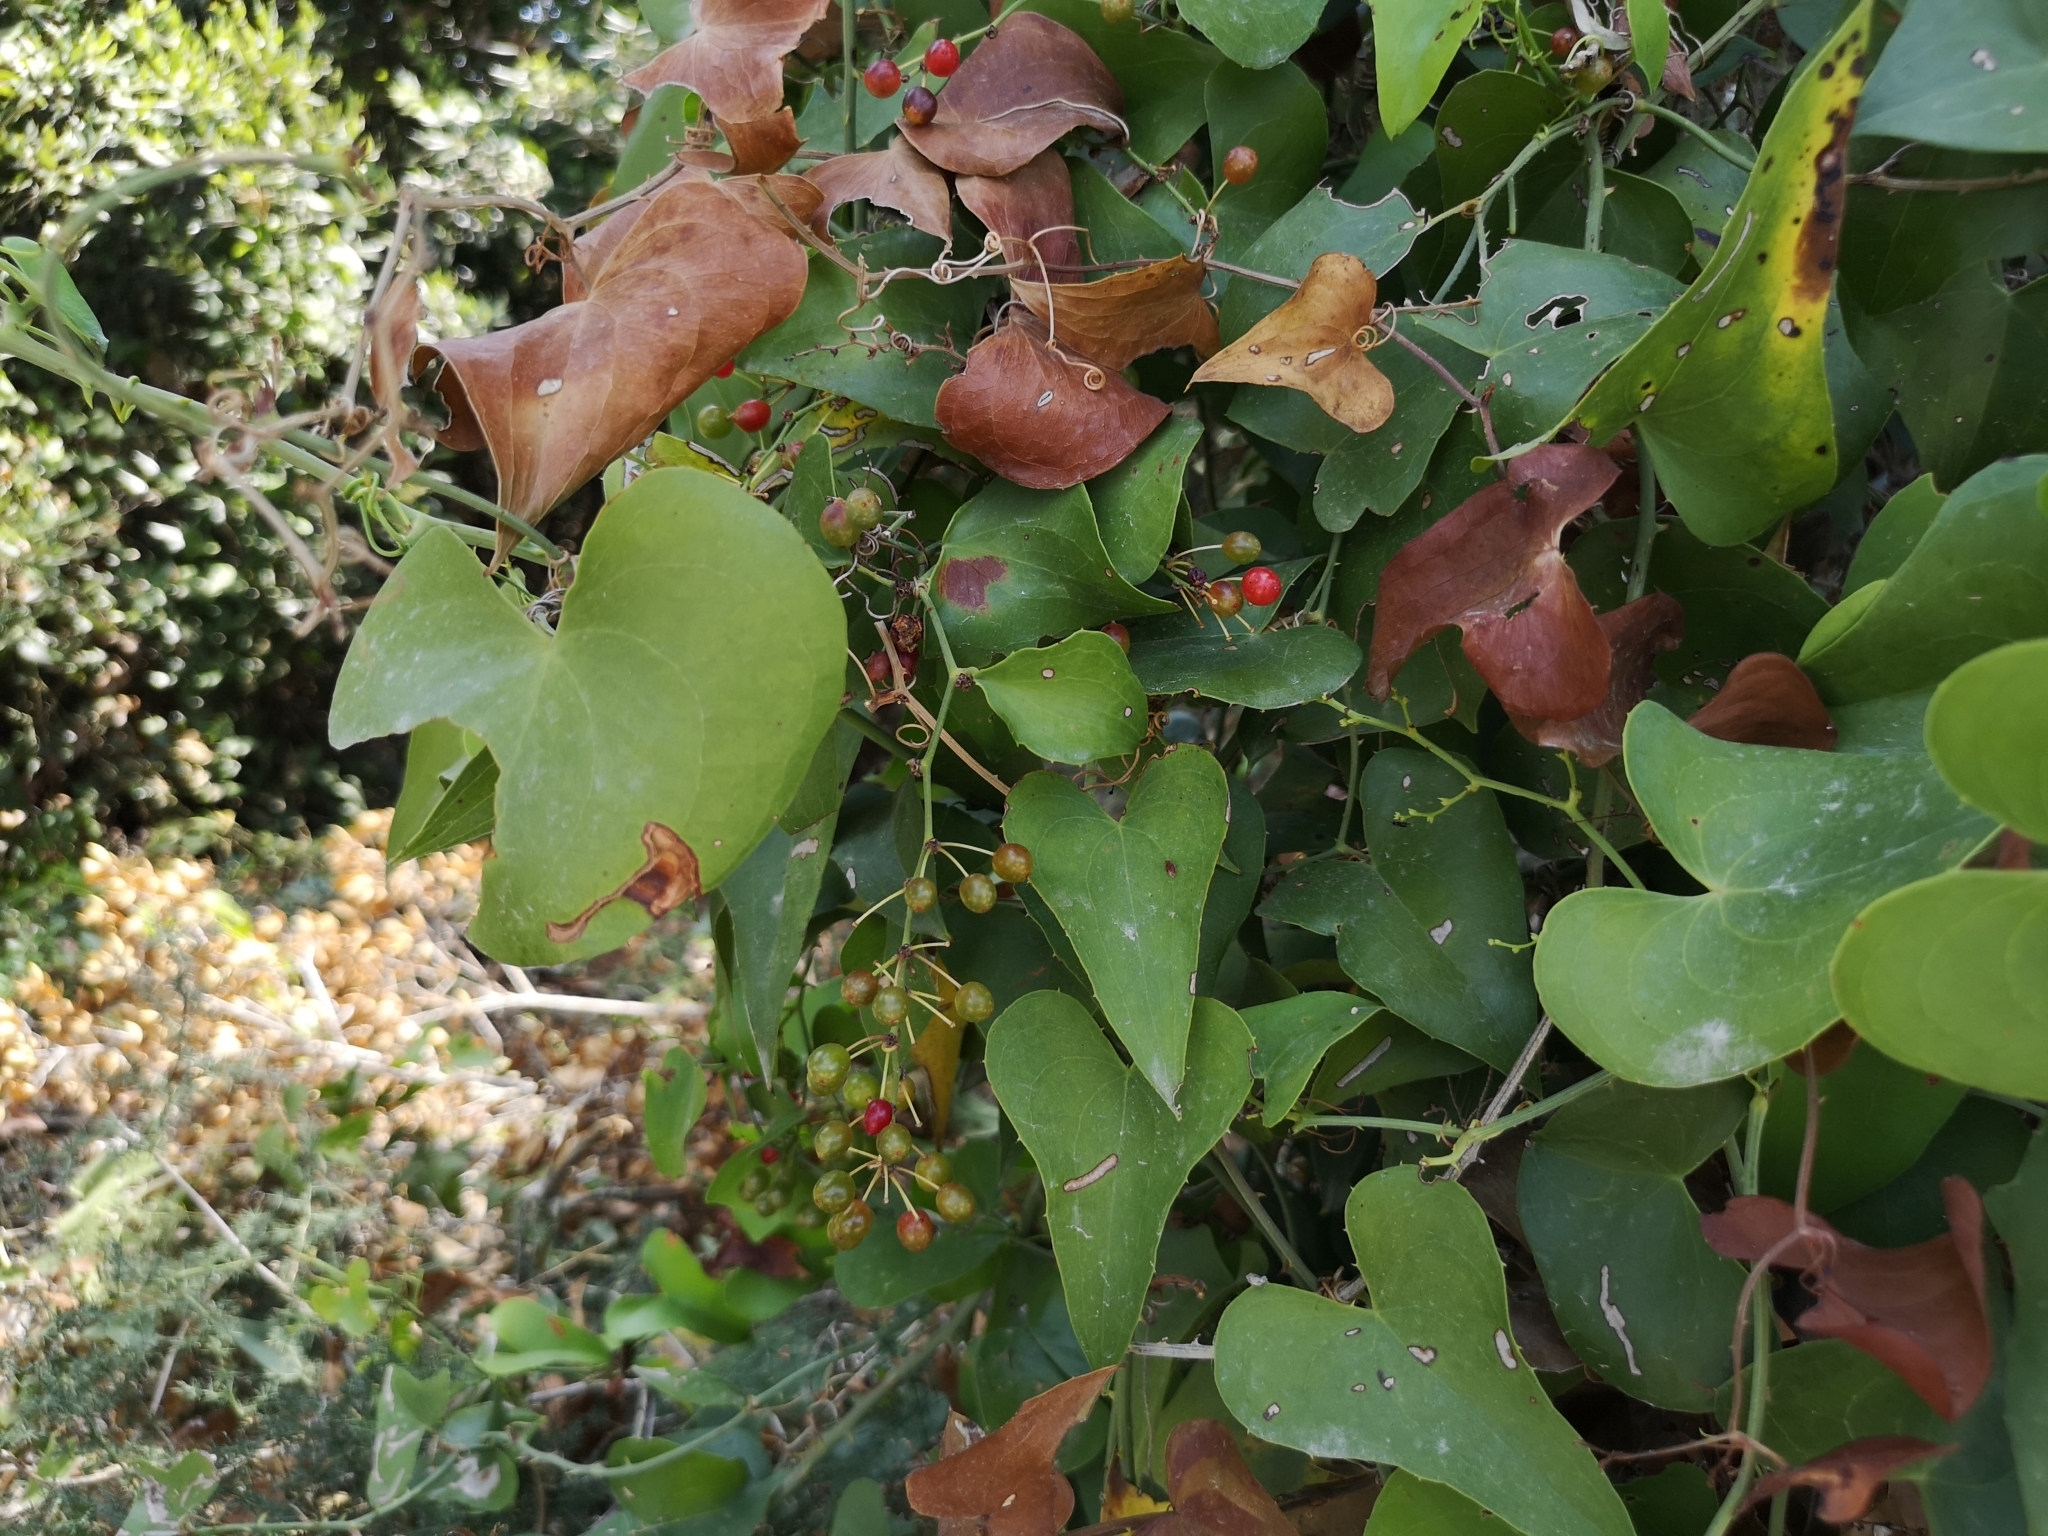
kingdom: Plantae
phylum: Tracheophyta
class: Liliopsida
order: Liliales
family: Smilacaceae
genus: Smilax
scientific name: Smilax aspera
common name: Common smilax
